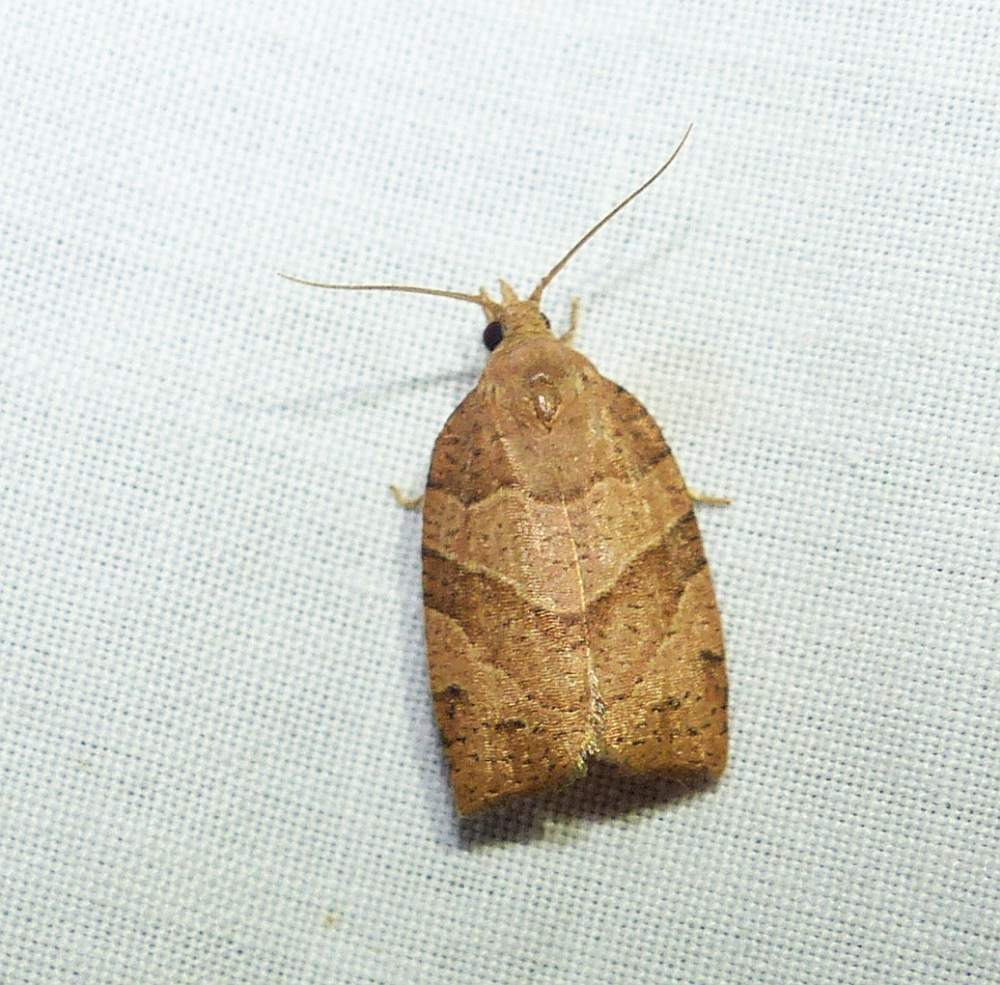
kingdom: Animalia
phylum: Arthropoda
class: Insecta
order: Lepidoptera
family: Tortricidae
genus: Pandemis
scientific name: Pandemis lamprosana
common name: Woodgrain leafroller moth
